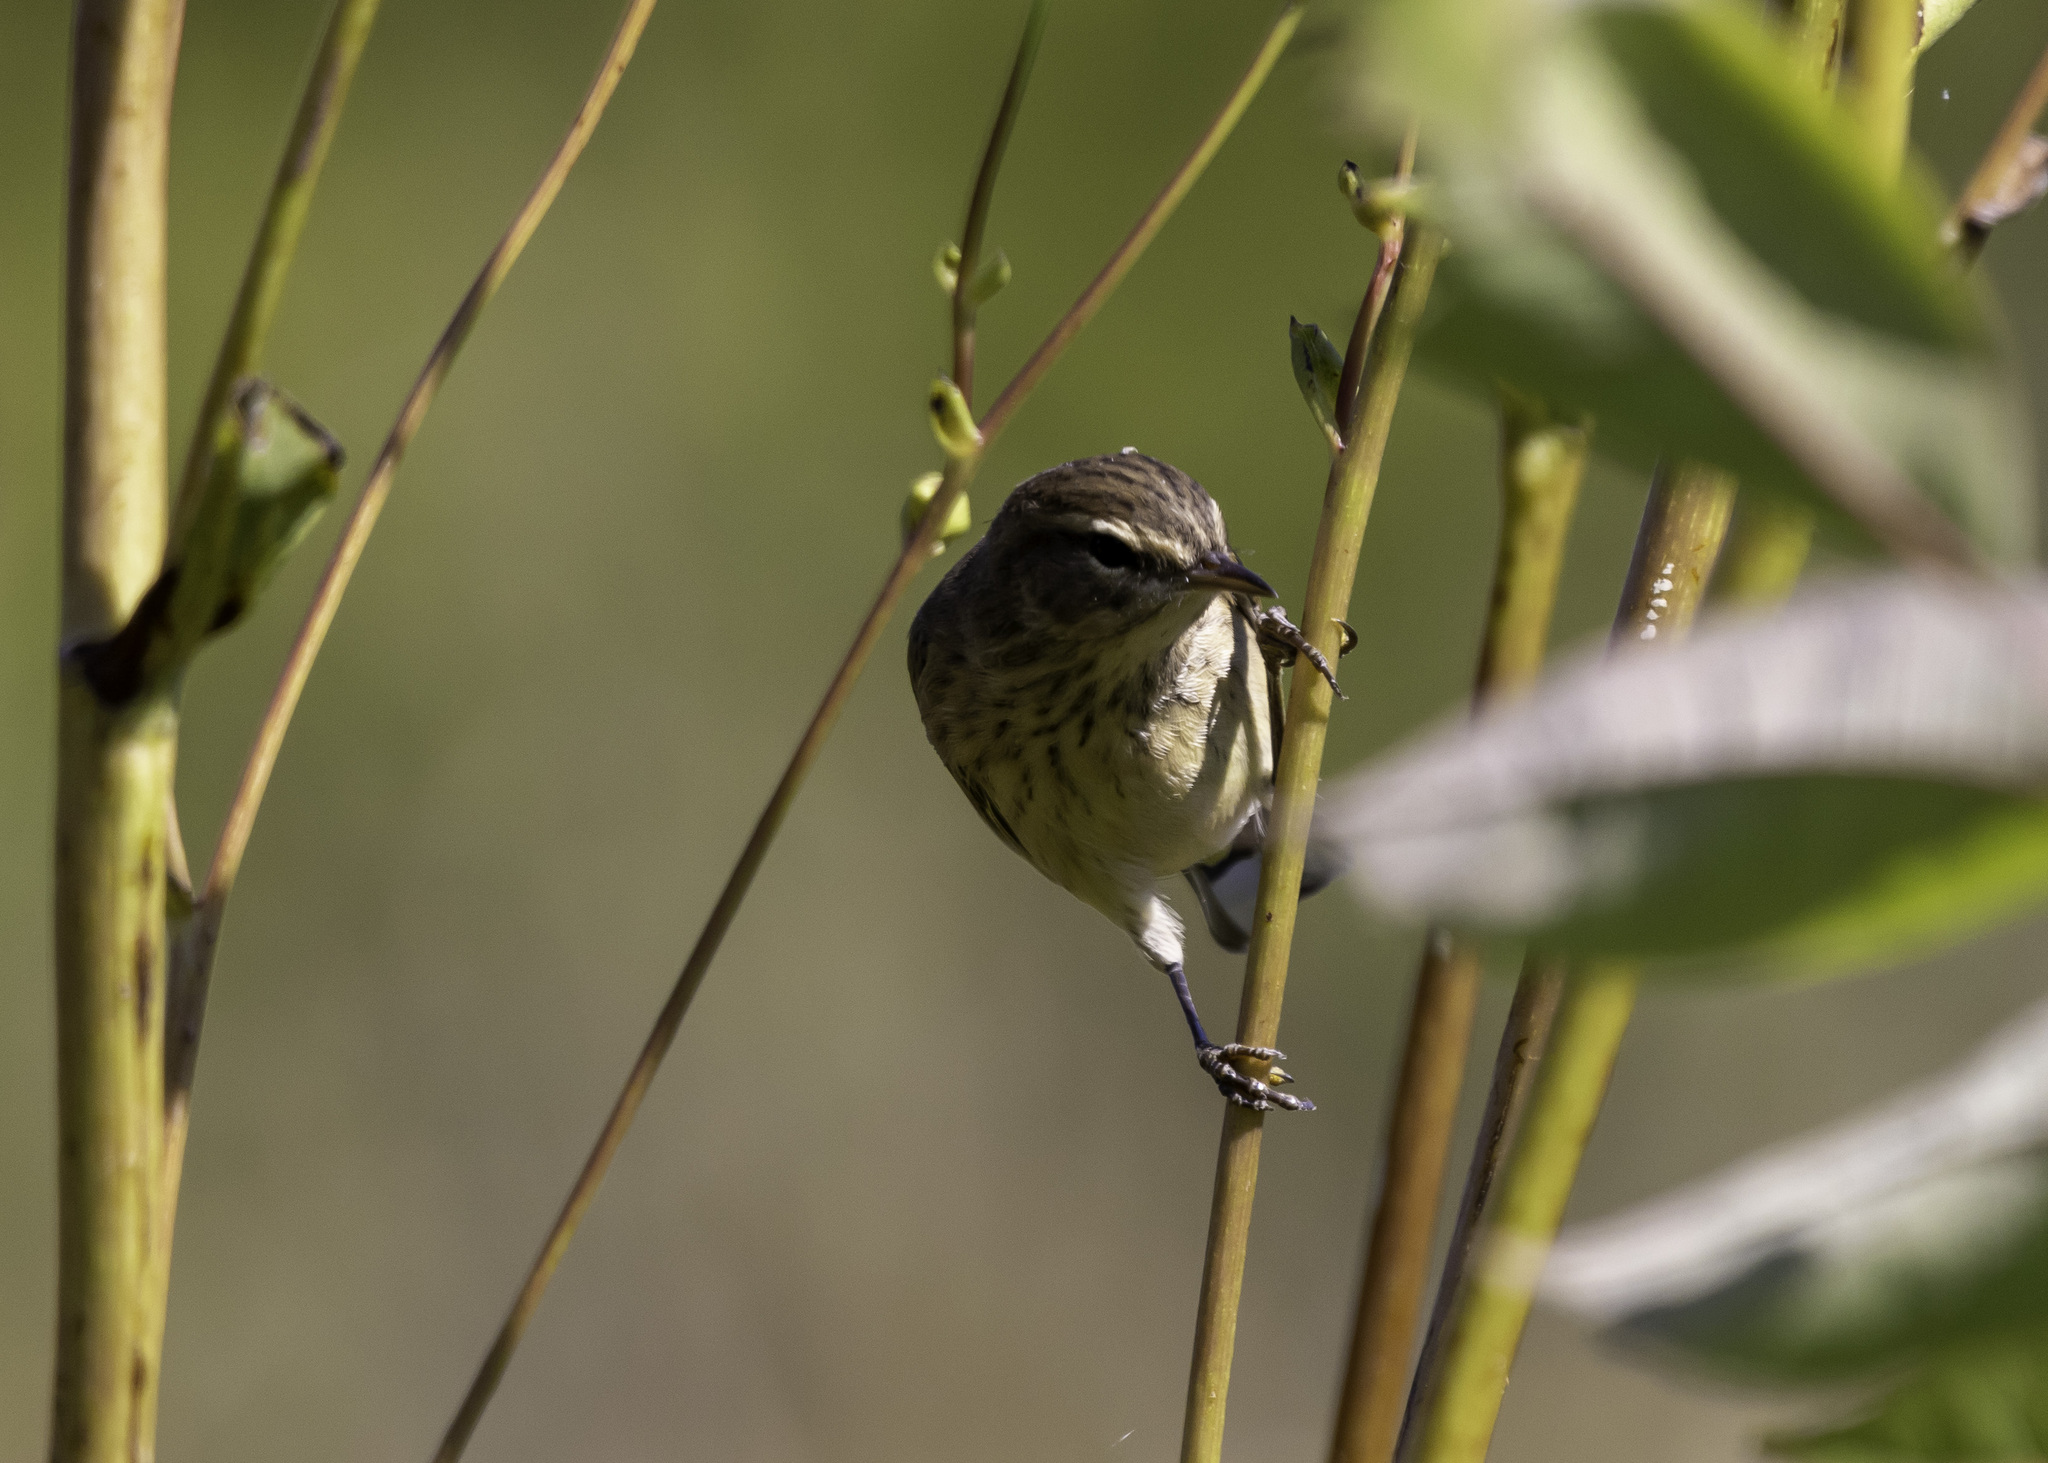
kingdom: Animalia
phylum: Chordata
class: Aves
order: Passeriformes
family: Parulidae
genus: Setophaga
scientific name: Setophaga palmarum
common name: Palm warbler
